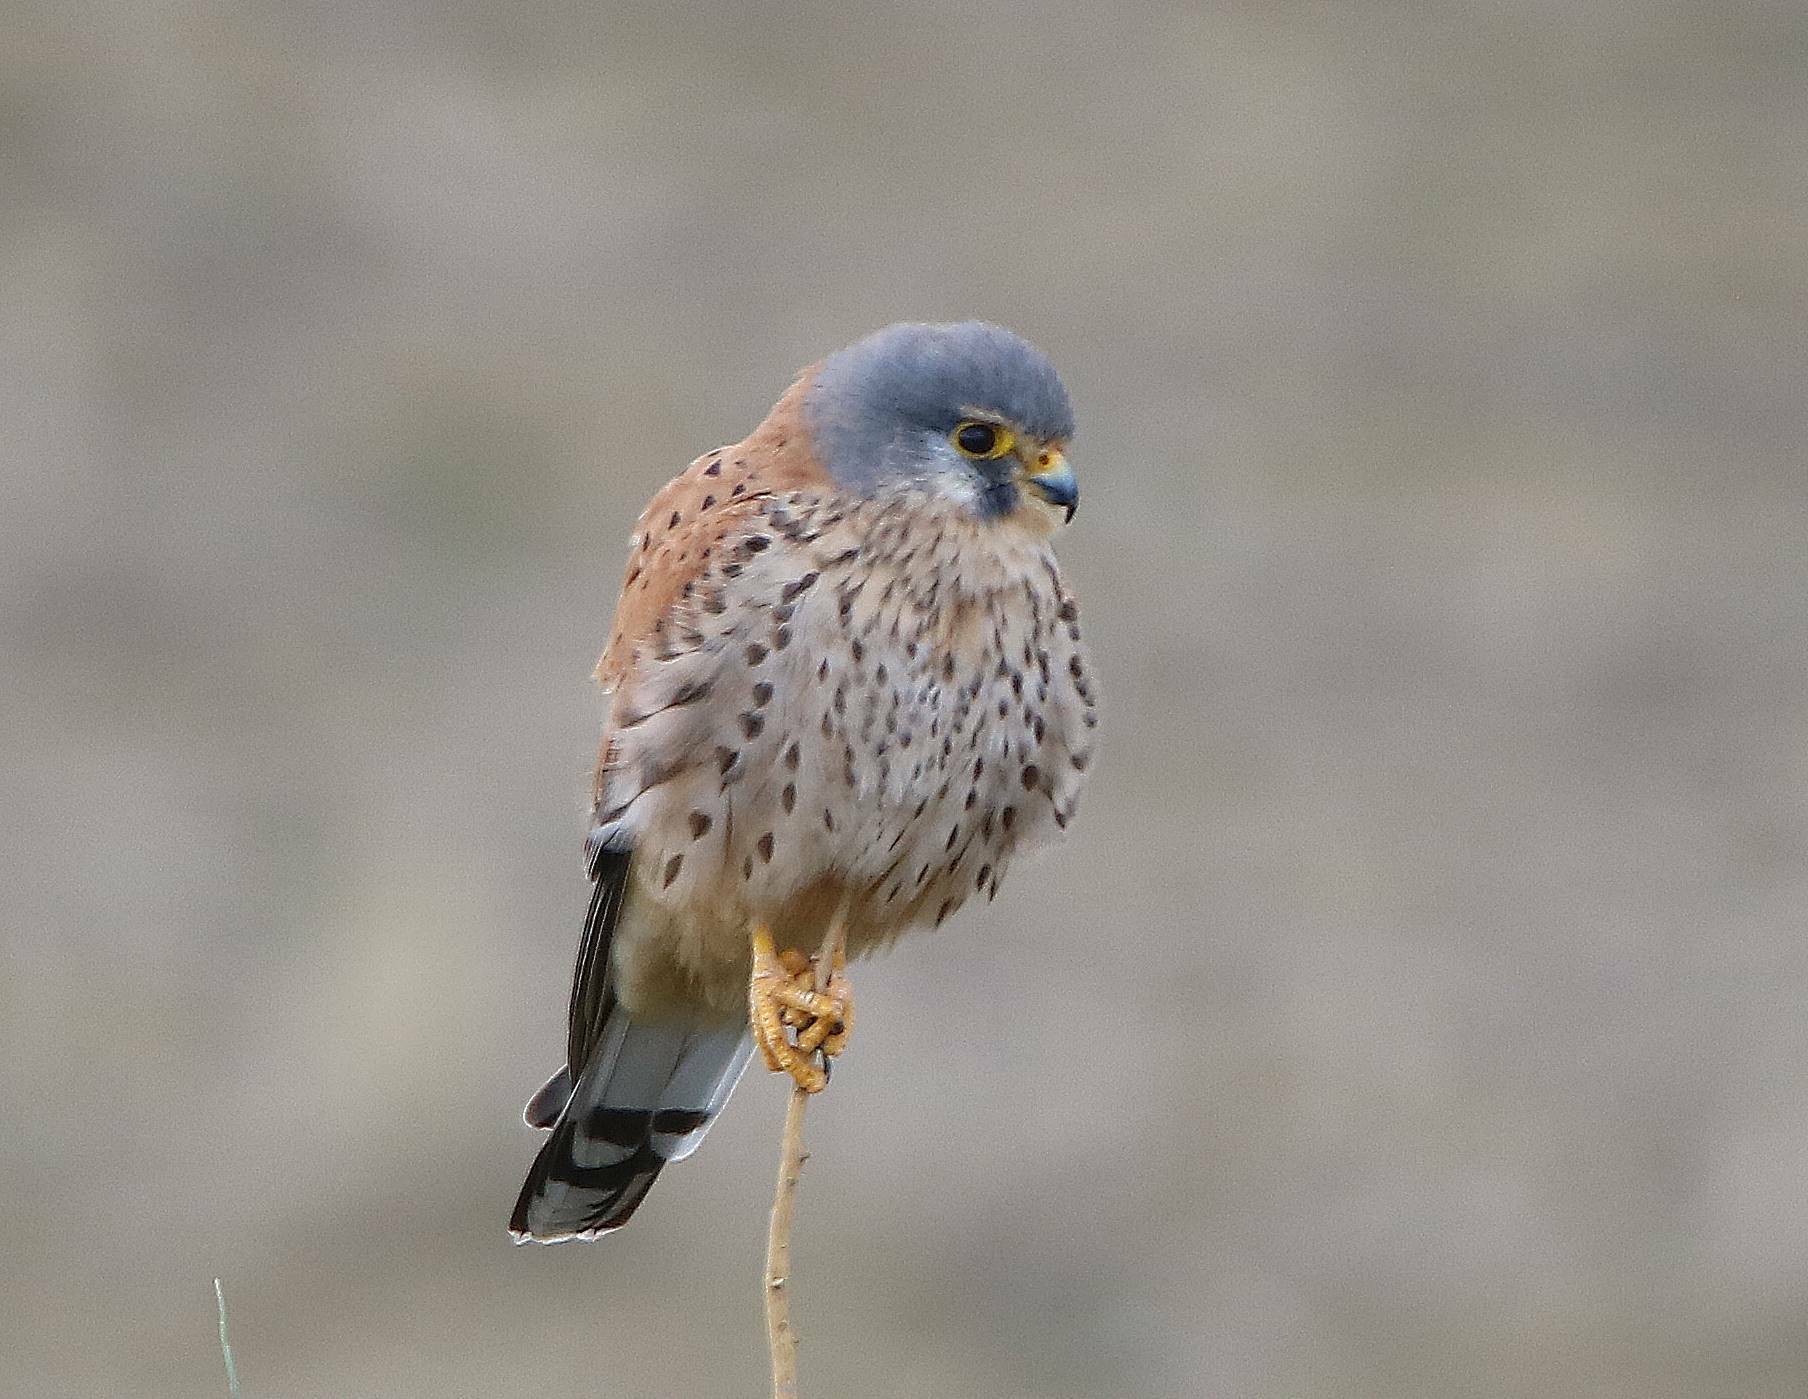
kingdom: Animalia
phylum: Chordata
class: Aves
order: Falconiformes
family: Falconidae
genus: Falco
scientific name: Falco tinnunculus
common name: Common kestrel
